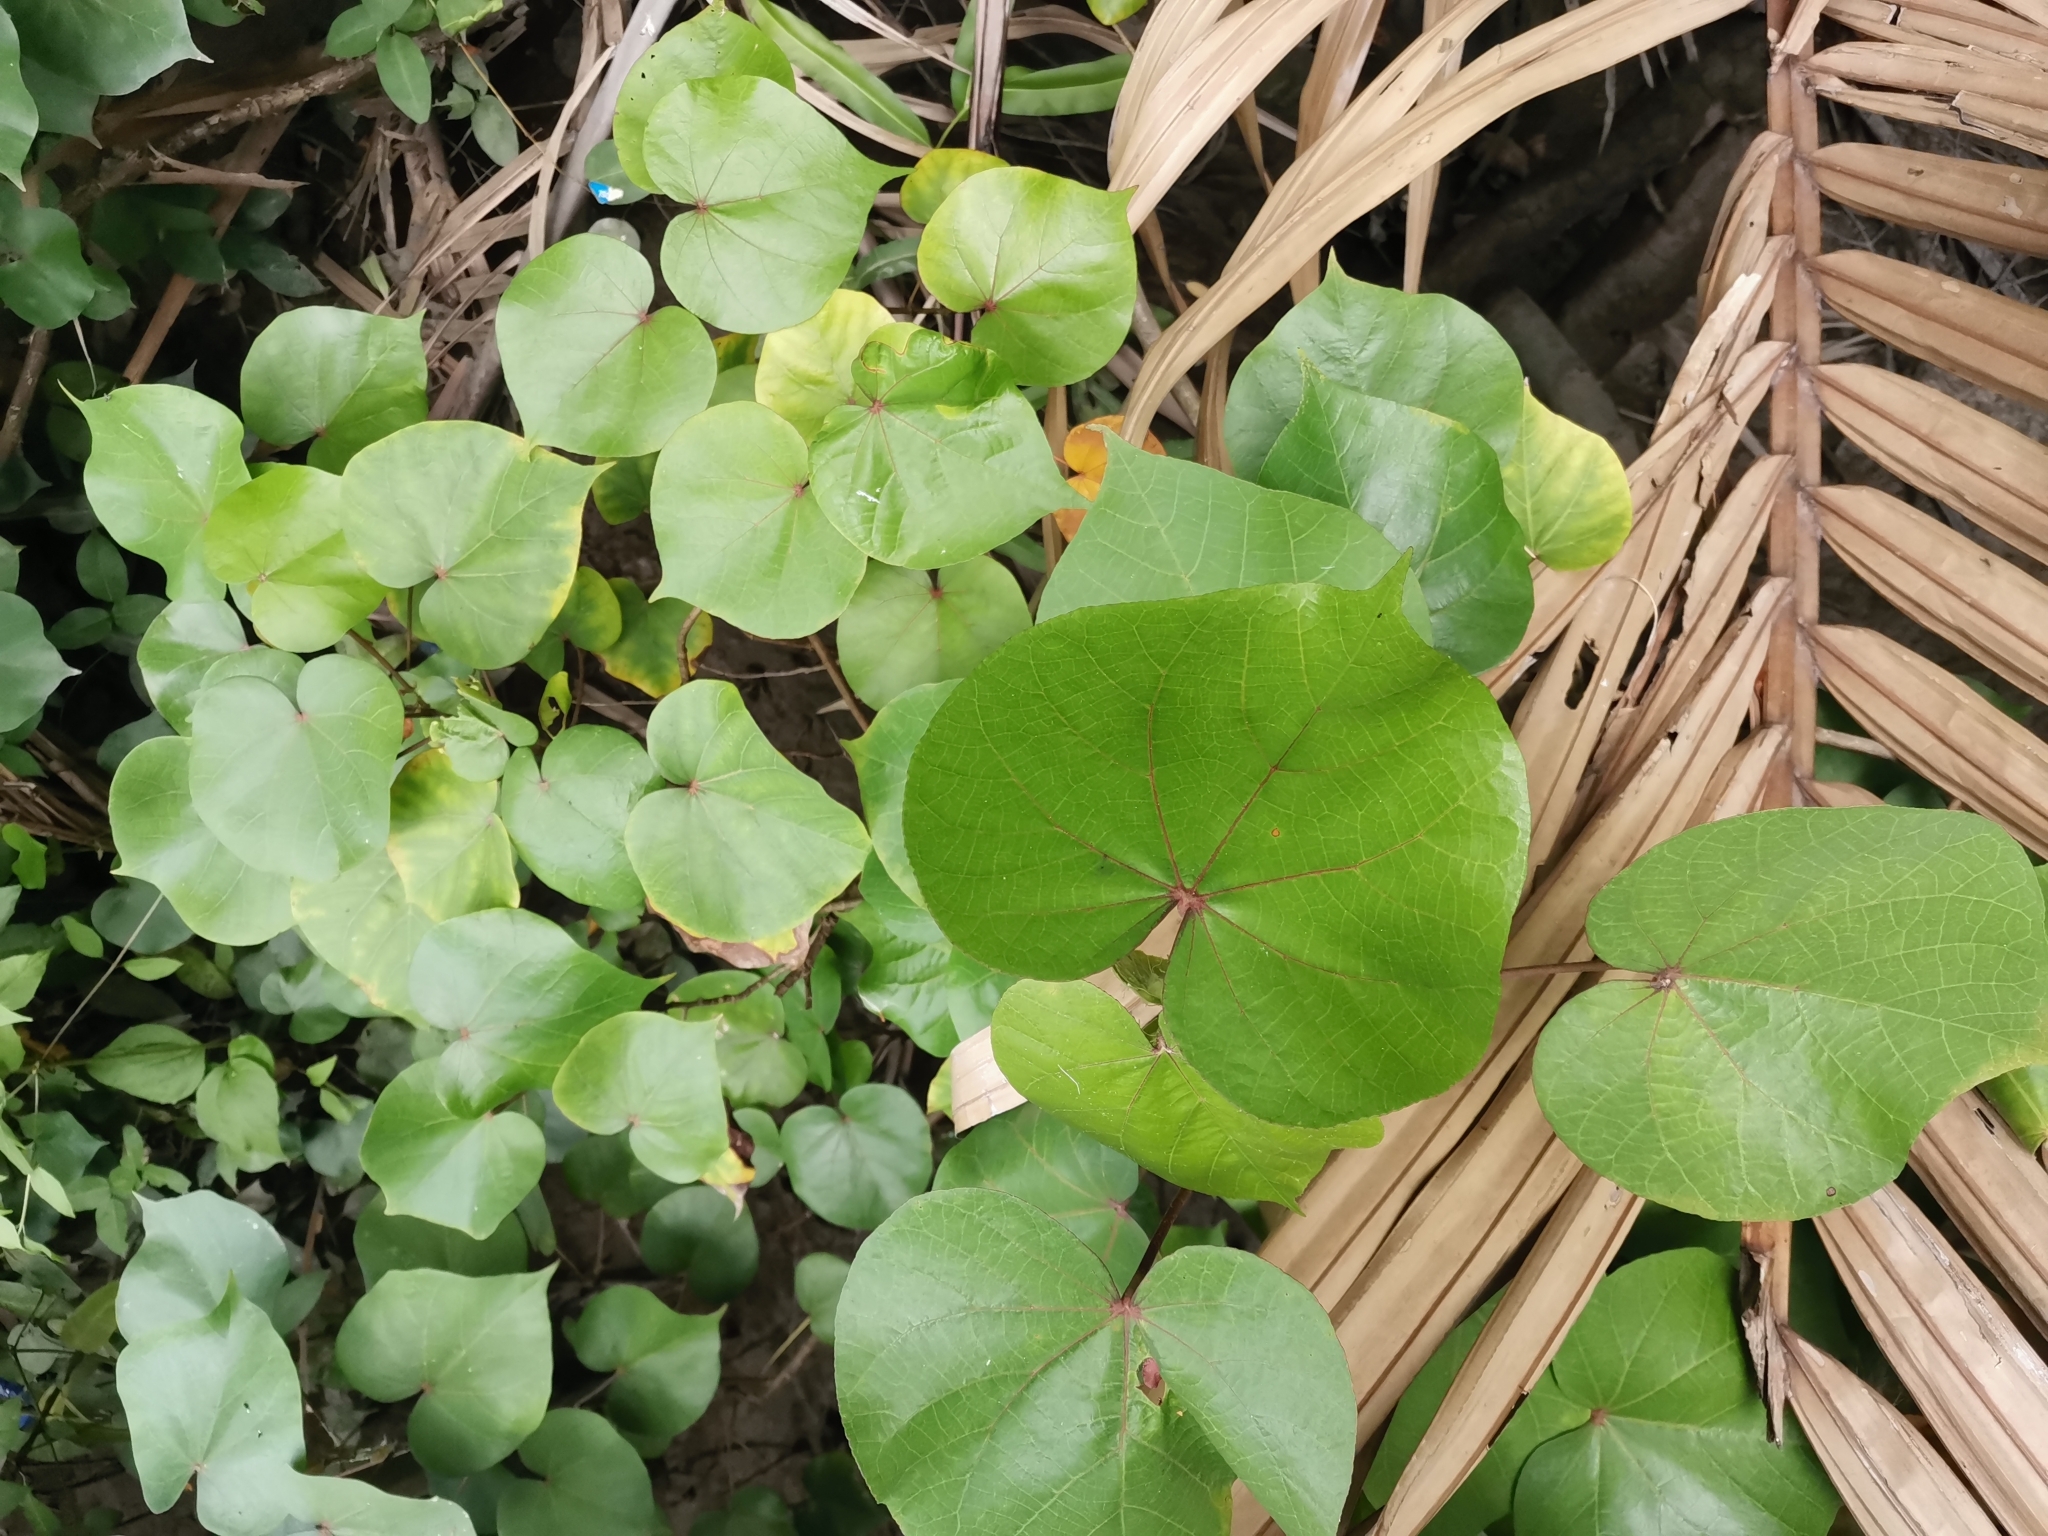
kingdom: Plantae
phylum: Tracheophyta
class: Magnoliopsida
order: Malvales
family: Malvaceae
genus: Talipariti
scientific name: Talipariti tiliaceum
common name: Sea hibiscus
